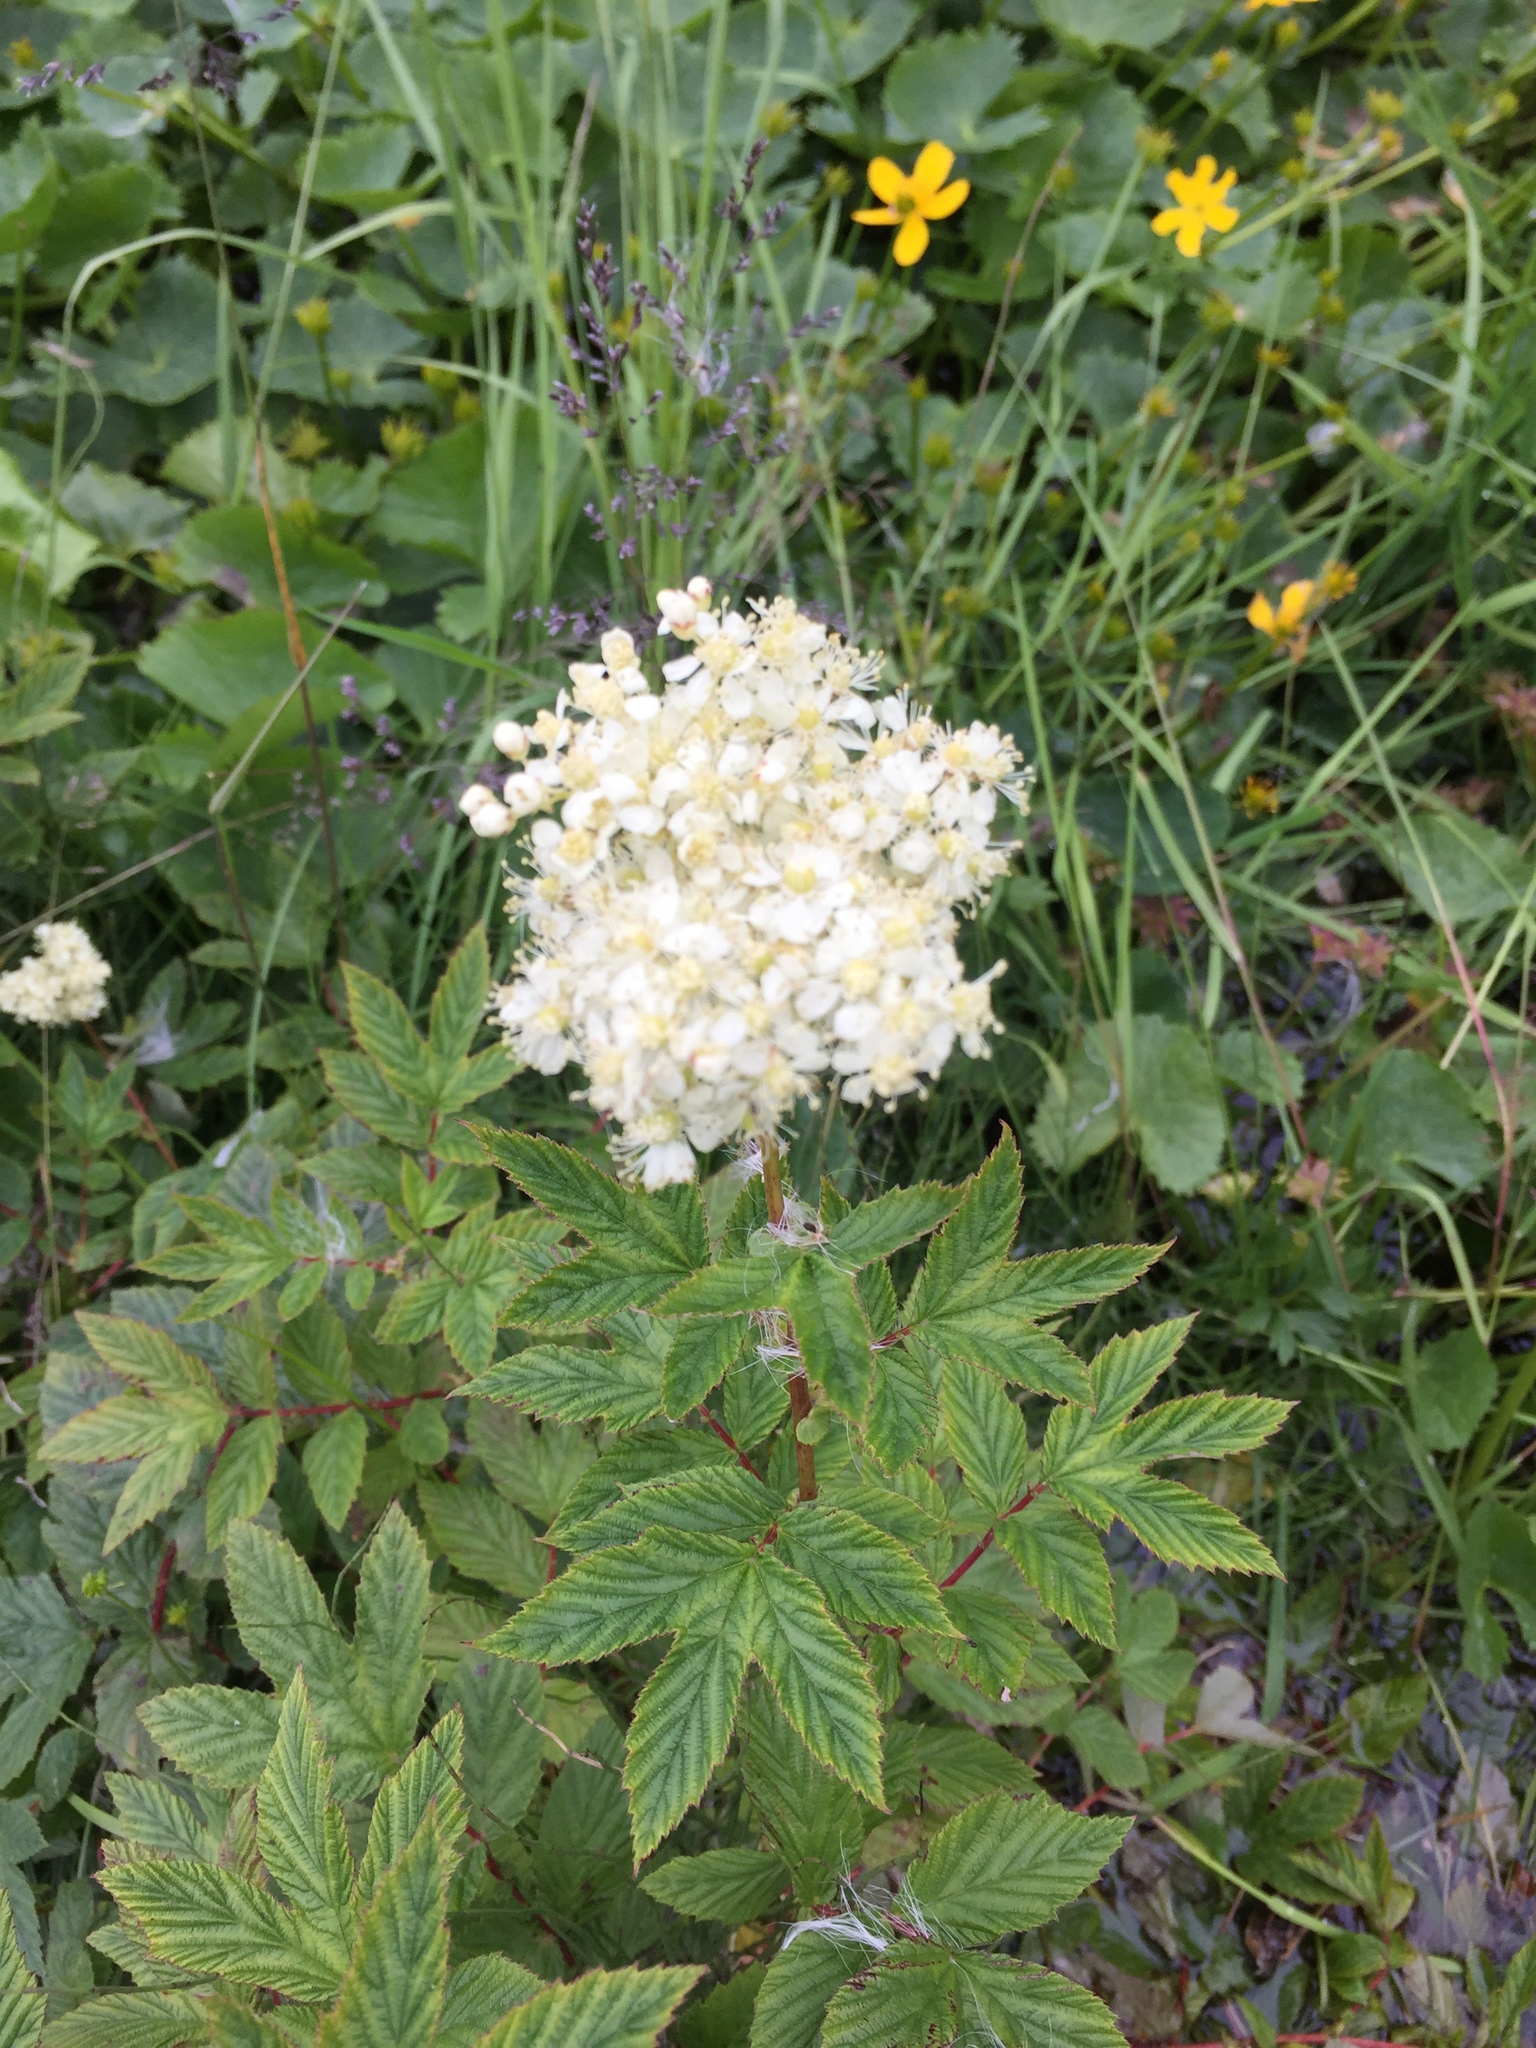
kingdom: Plantae
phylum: Tracheophyta
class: Magnoliopsida
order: Rosales
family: Rosaceae
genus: Filipendula
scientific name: Filipendula ulmaria
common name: Meadowsweet
